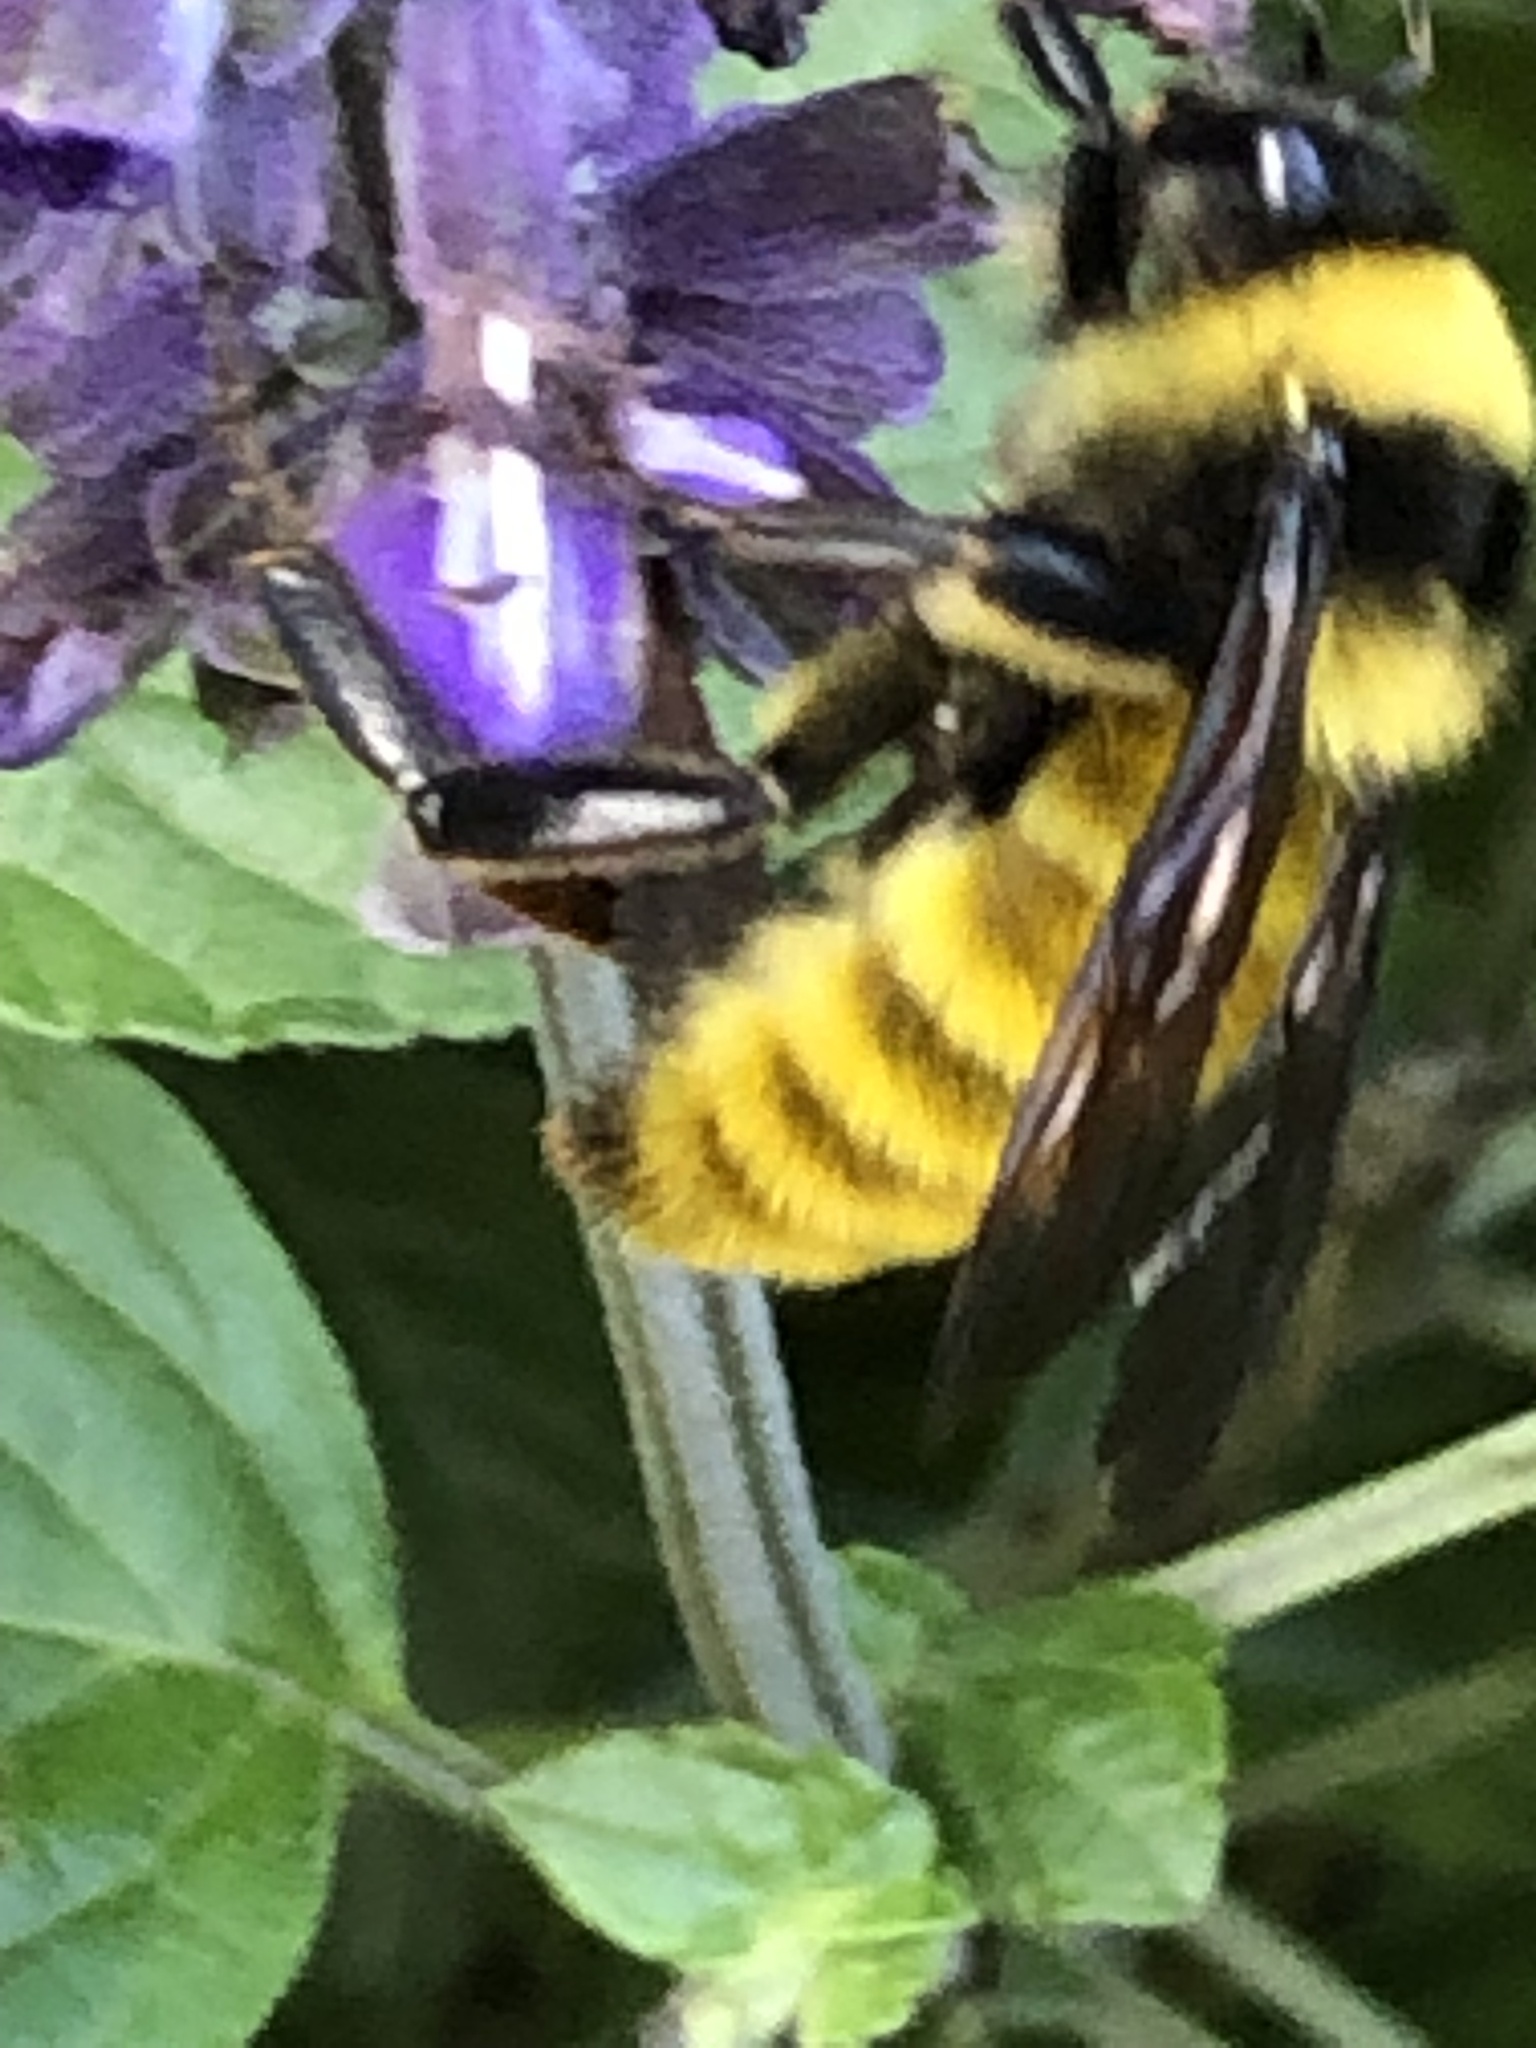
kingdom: Animalia
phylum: Arthropoda
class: Insecta
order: Hymenoptera
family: Apidae
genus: Bombus
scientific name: Bombus pensylvanicus
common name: Bumble bee
